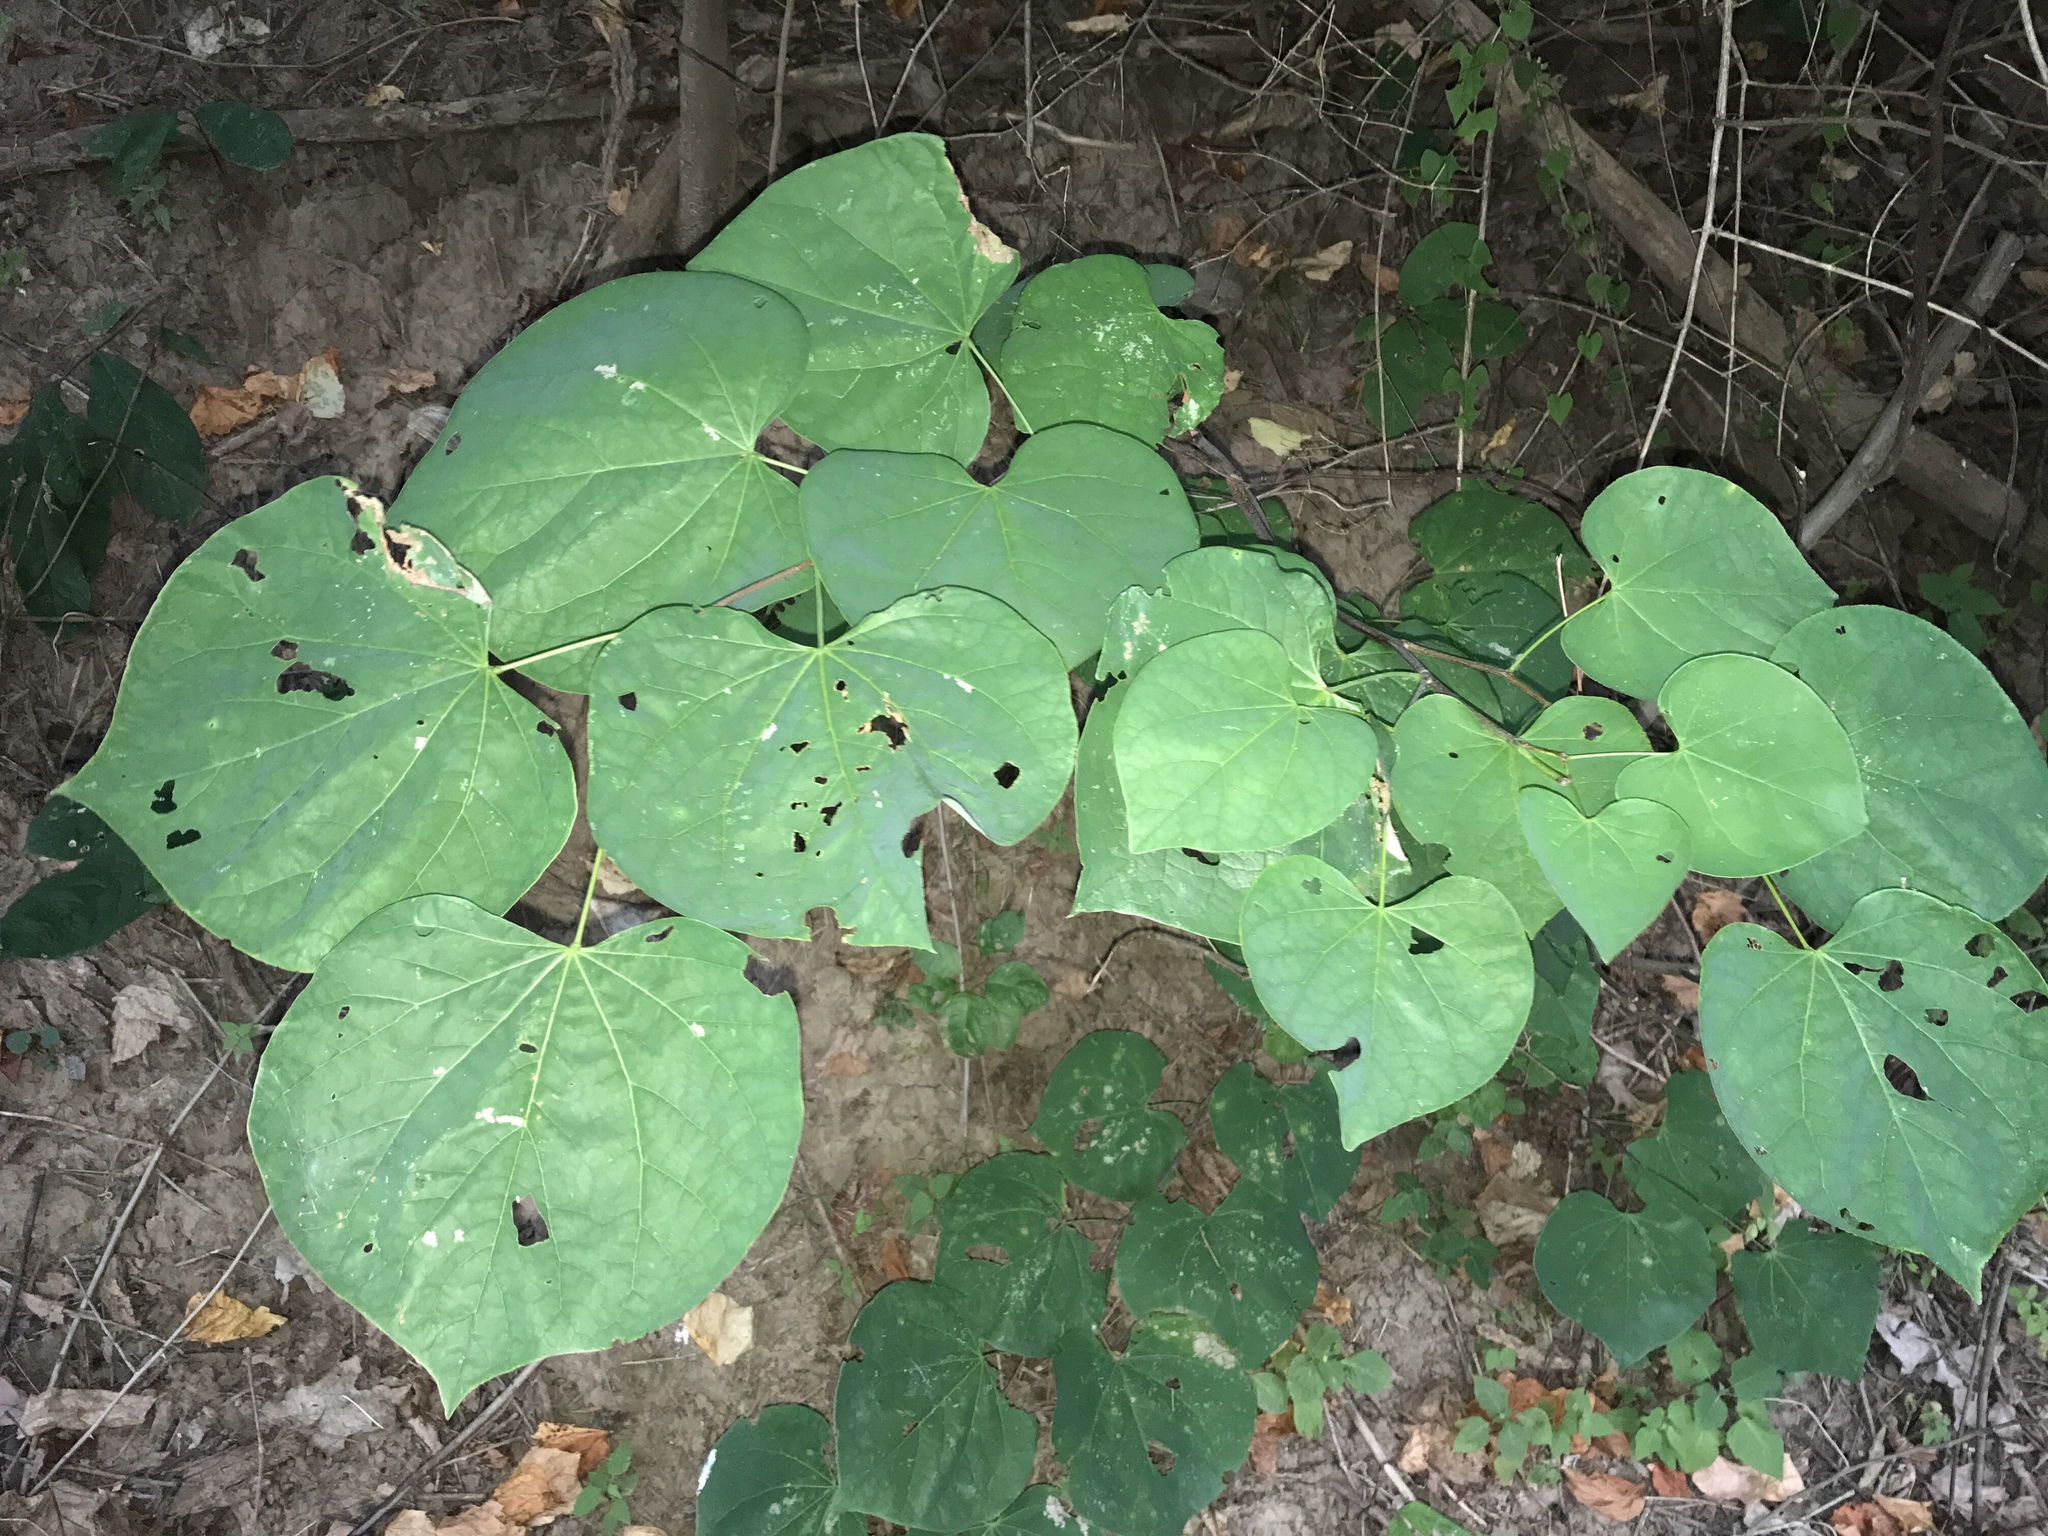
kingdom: Plantae
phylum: Tracheophyta
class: Magnoliopsida
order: Fabales
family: Fabaceae
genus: Cercis
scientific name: Cercis canadensis
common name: Eastern redbud
